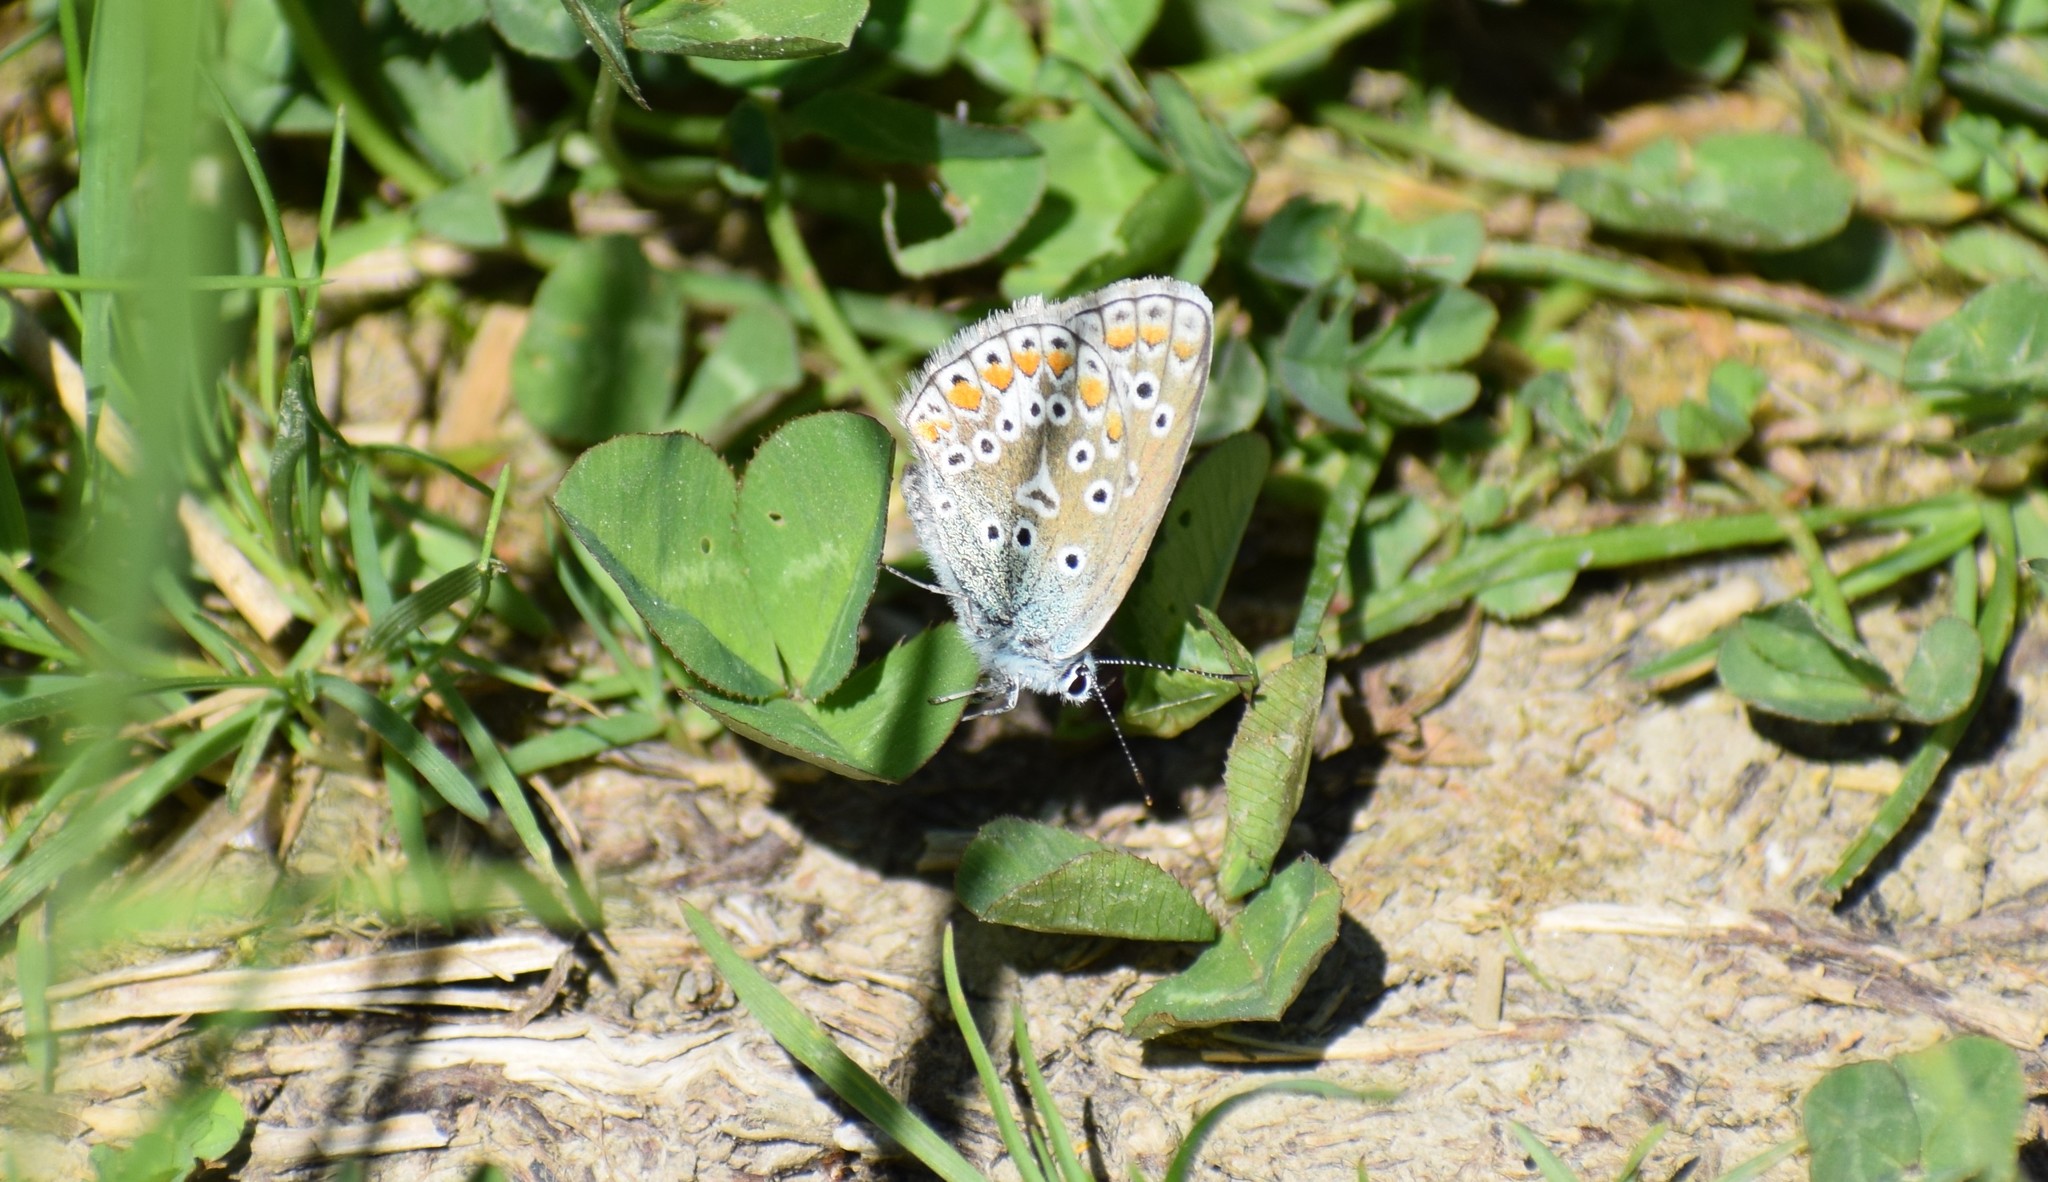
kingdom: Animalia
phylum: Arthropoda
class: Insecta
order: Lepidoptera
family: Lycaenidae
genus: Polyommatus
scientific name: Polyommatus icarus
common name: Common blue
